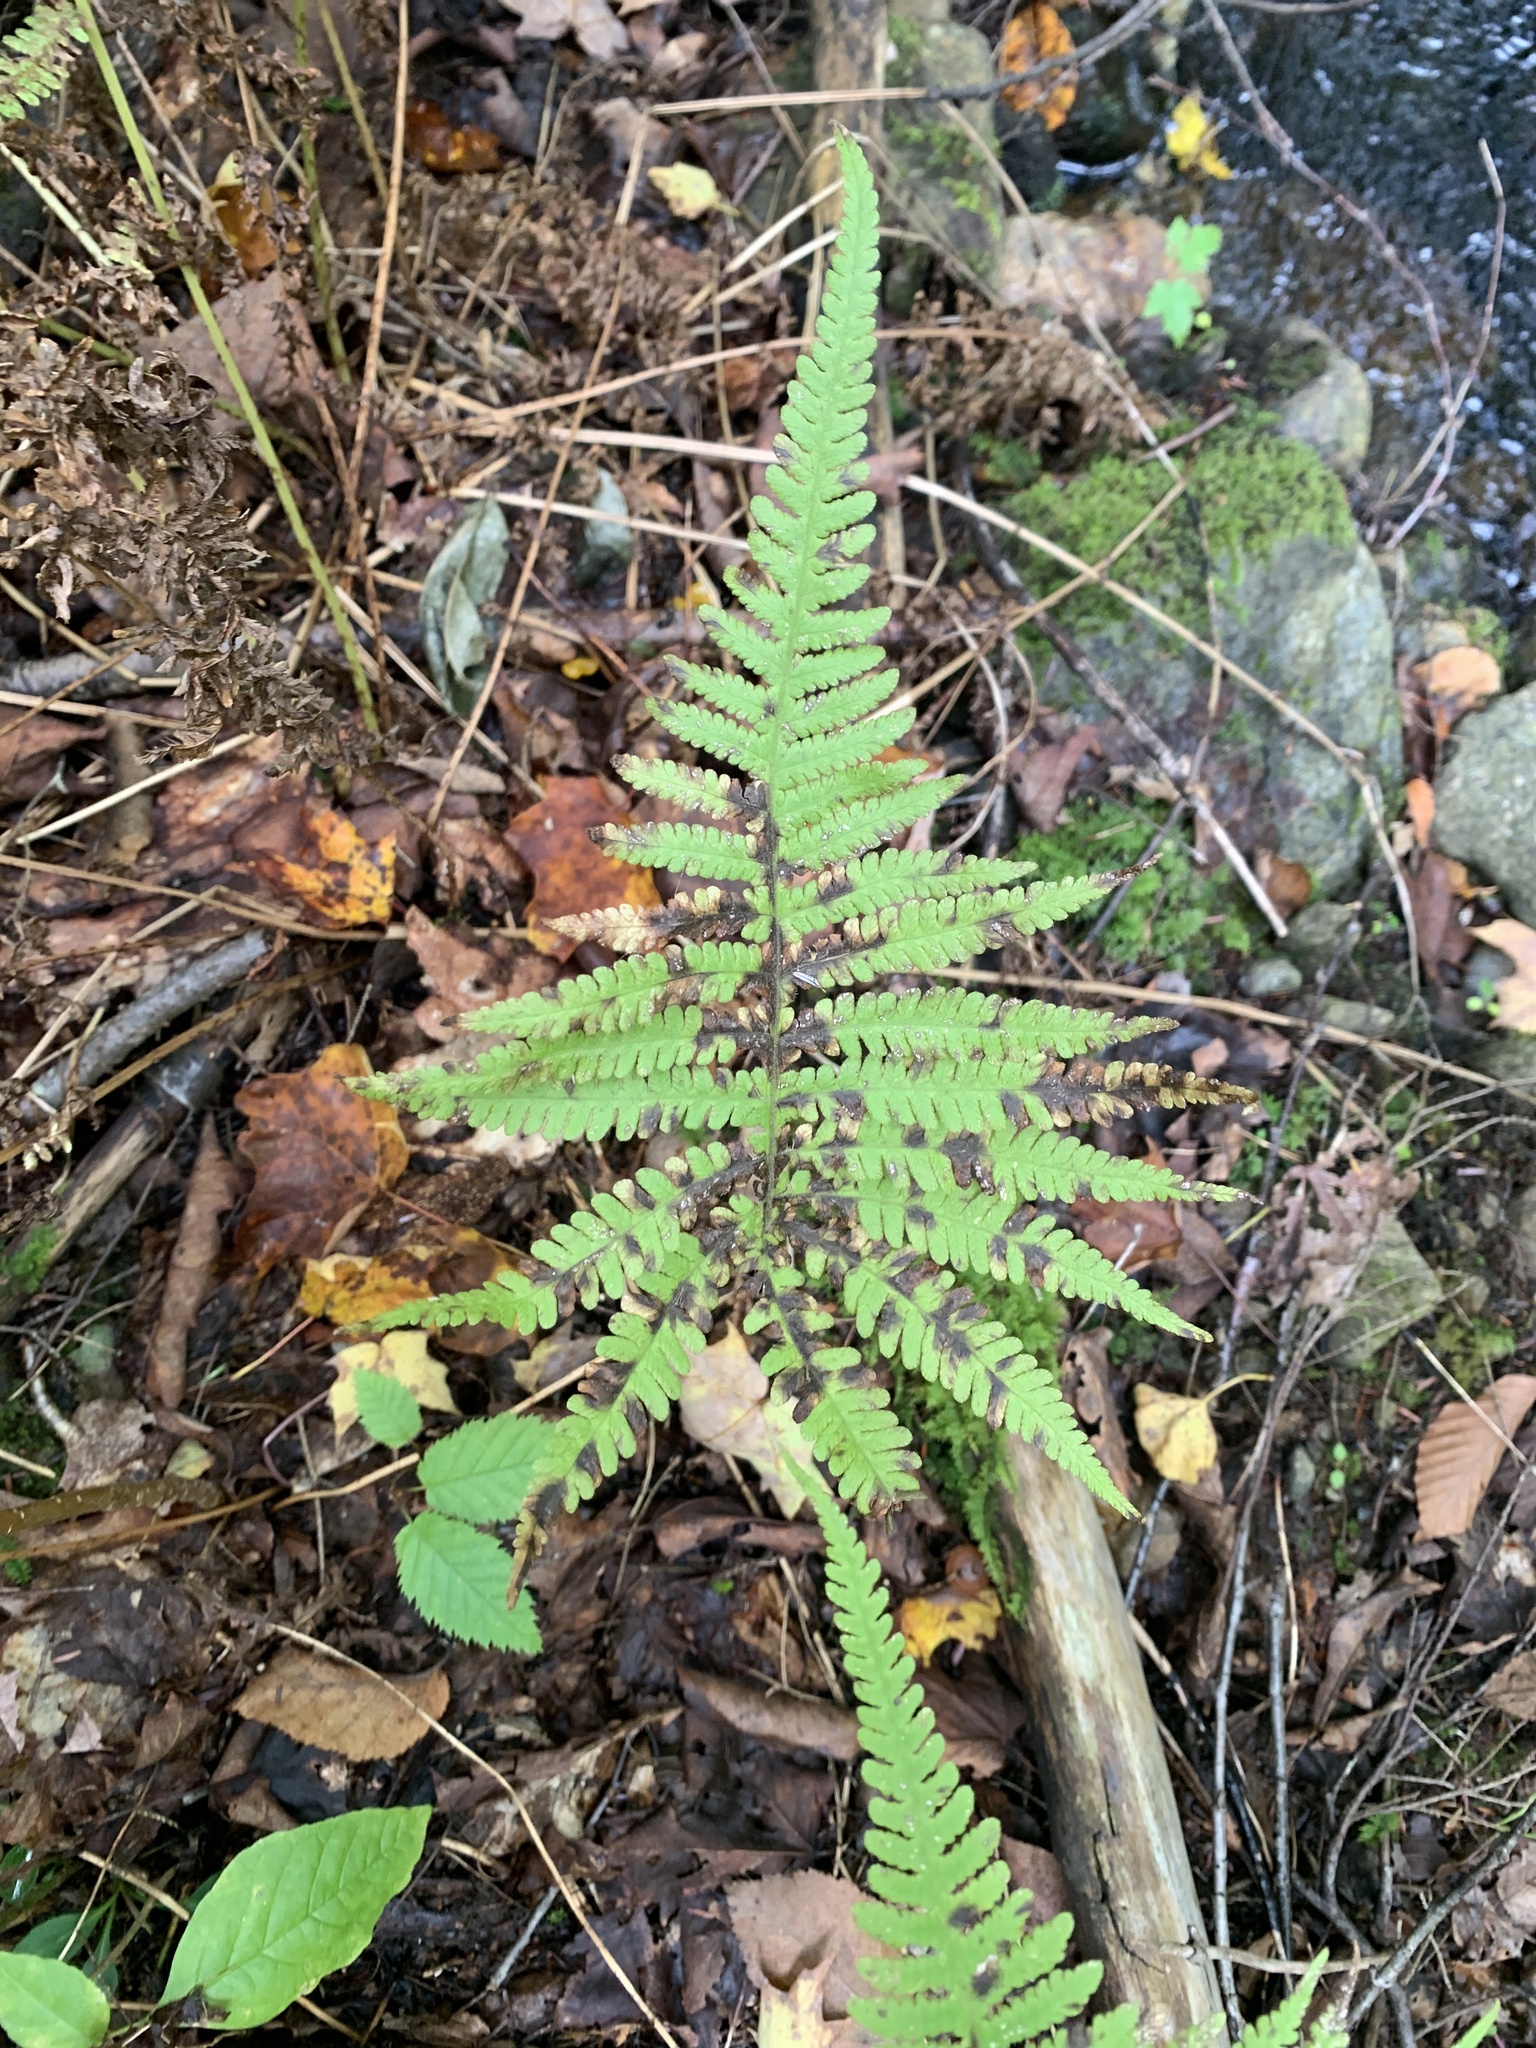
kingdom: Plantae
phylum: Tracheophyta
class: Polypodiopsida
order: Polypodiales
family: Thelypteridaceae
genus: Phegopteris
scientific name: Phegopteris connectilis
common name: Beech fern
